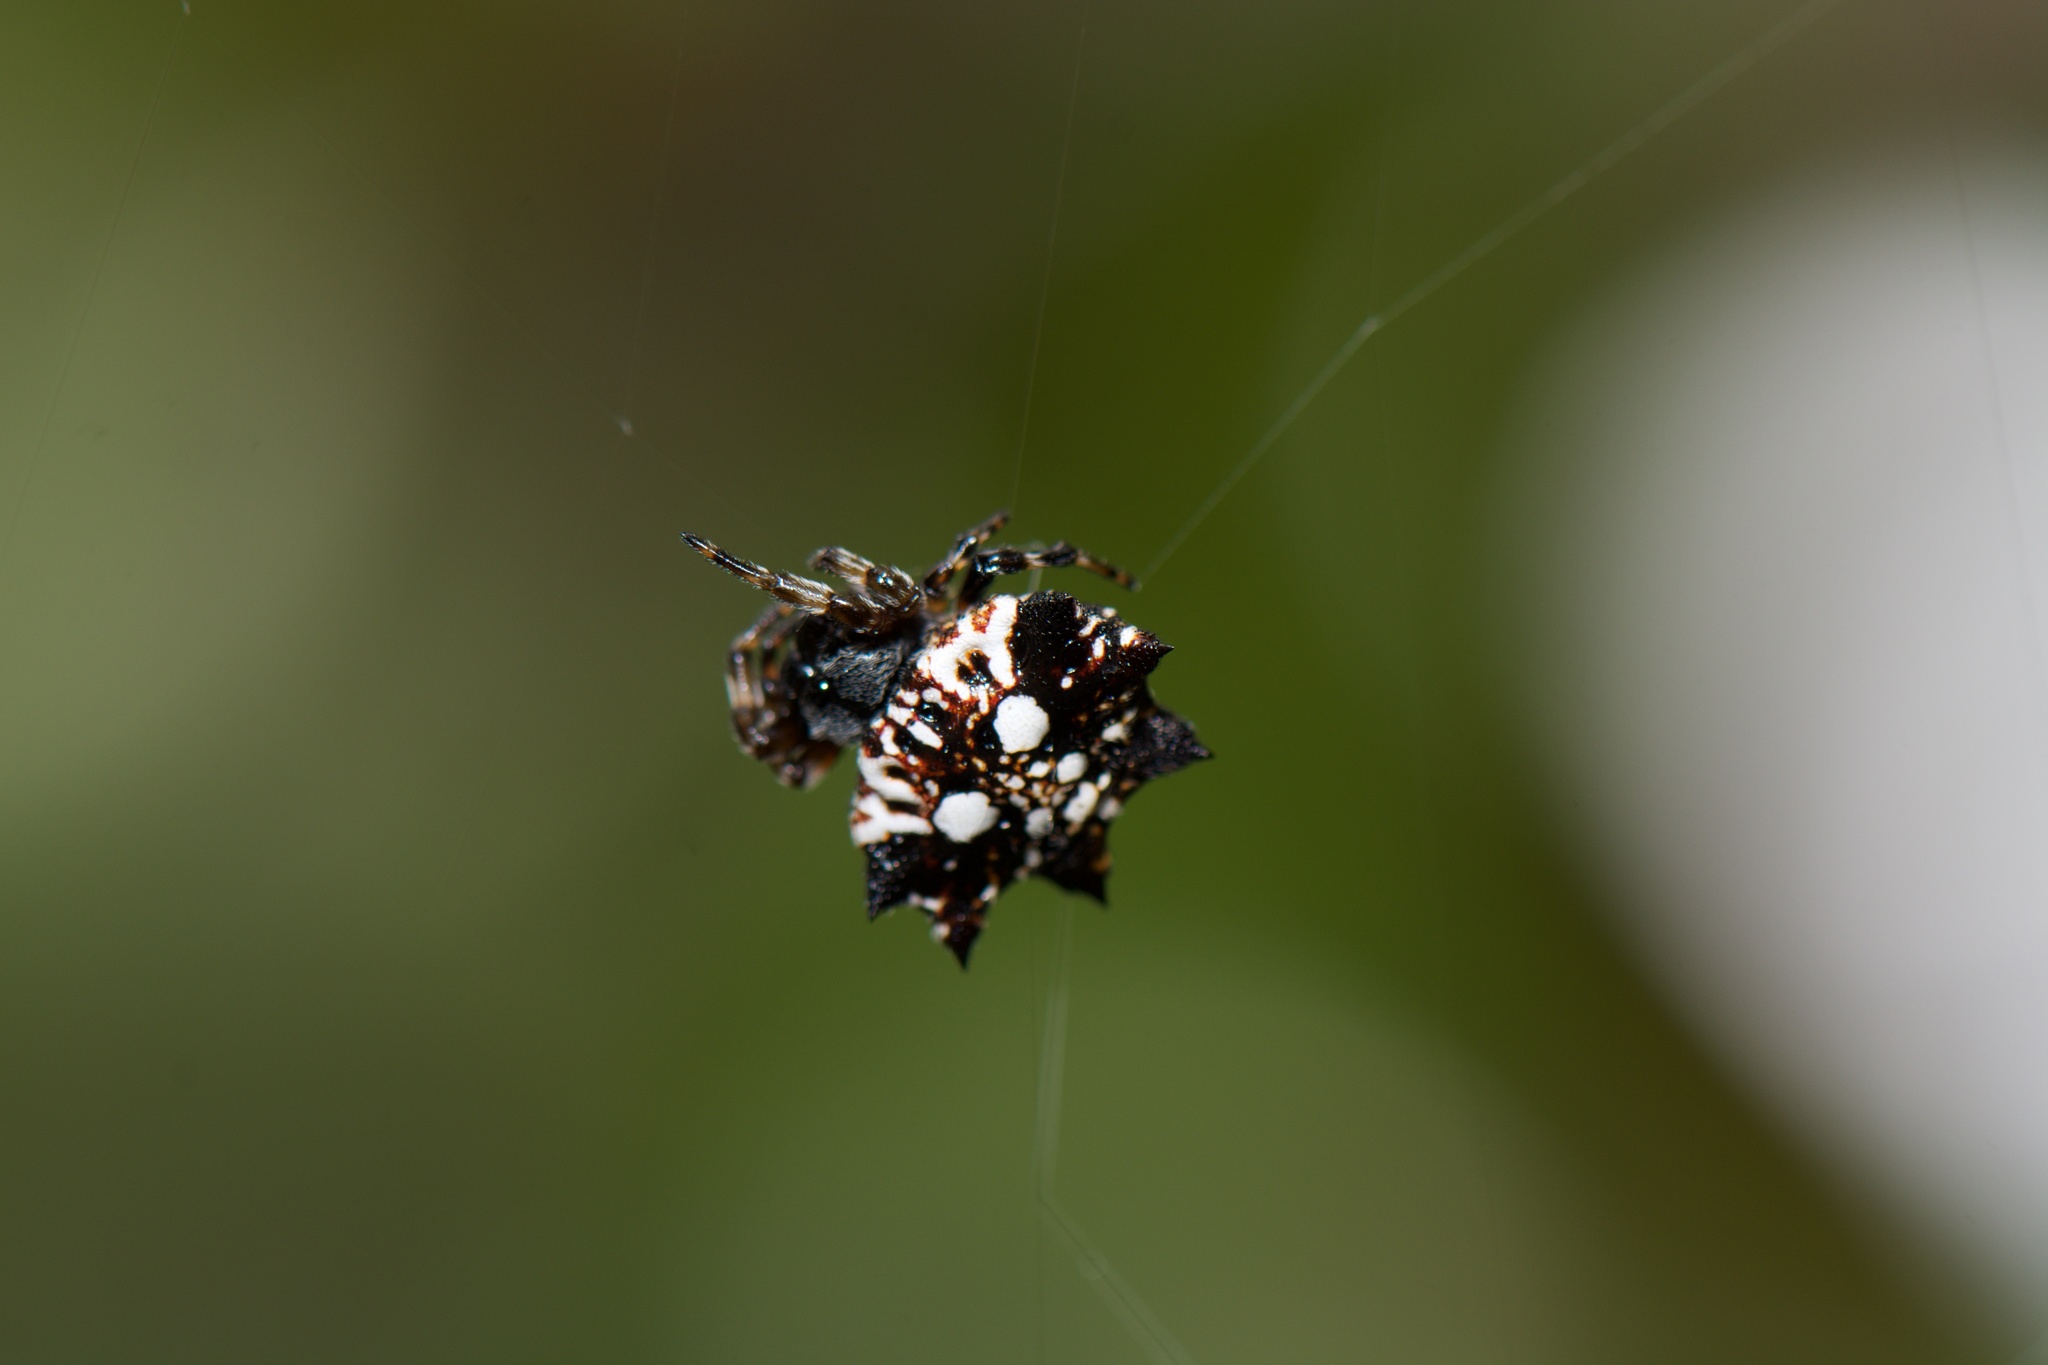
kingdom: Animalia
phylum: Arthropoda
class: Arachnida
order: Araneae
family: Araneidae
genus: Thelacantha
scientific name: Thelacantha brevispina
